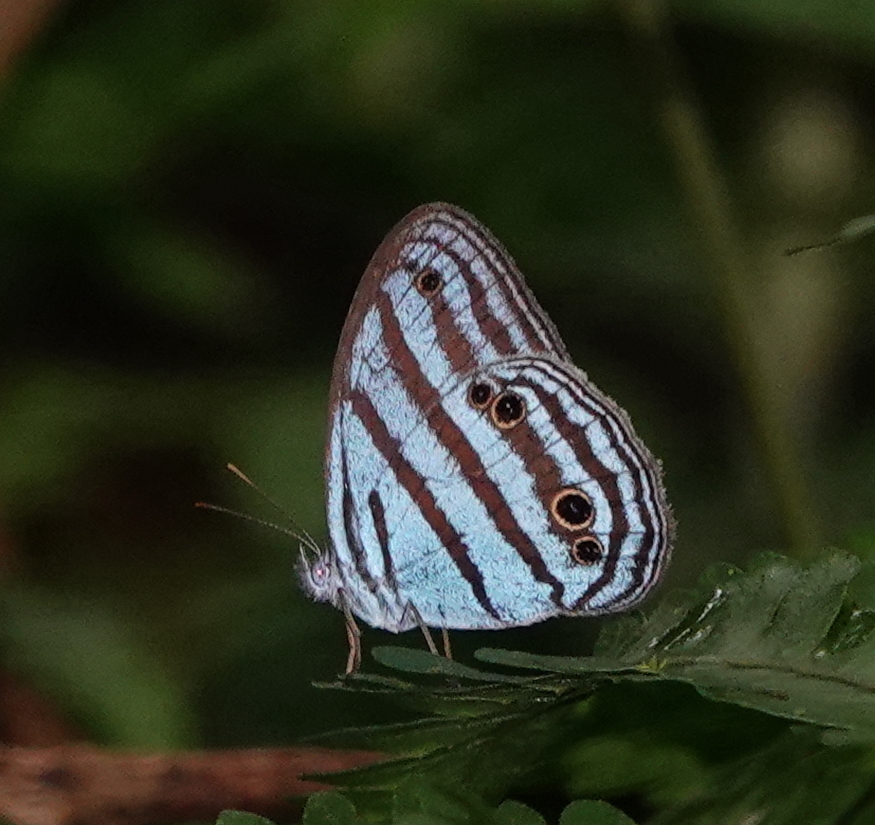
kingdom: Animalia
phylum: Arthropoda
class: Insecta
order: Lepidoptera
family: Nymphalidae
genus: Cepheuptychia
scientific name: Cepheuptychia cephus
